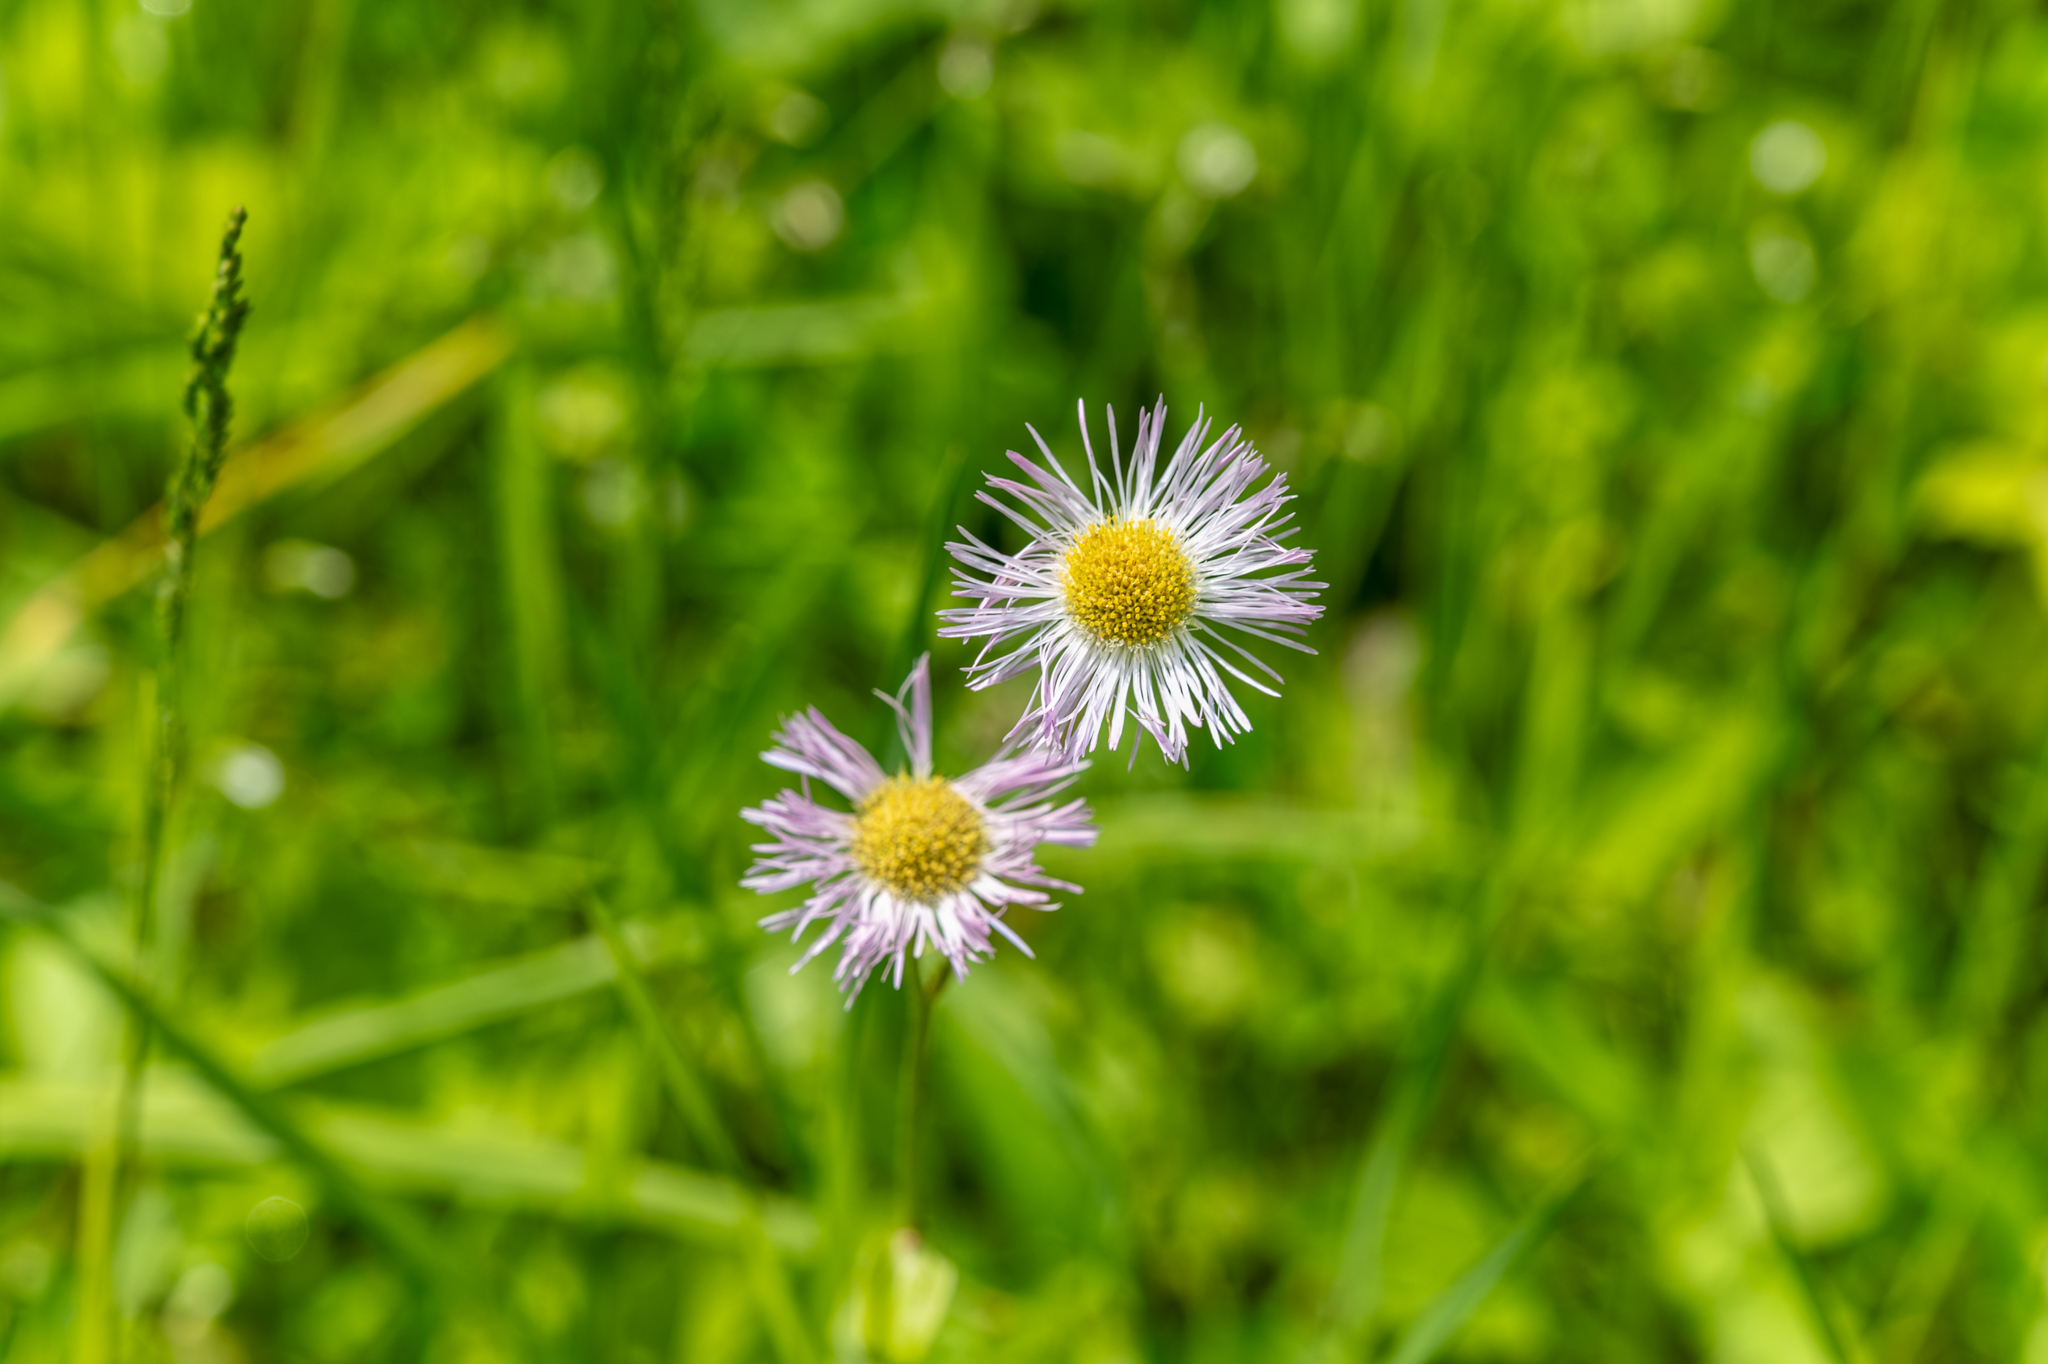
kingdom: Plantae
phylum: Tracheophyta
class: Magnoliopsida
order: Asterales
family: Asteraceae
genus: Erigeron
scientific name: Erigeron philadelphicus
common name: Robin's-plantain
